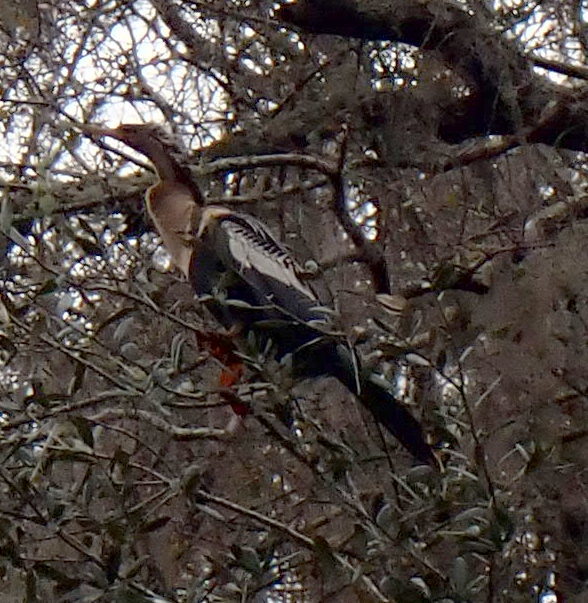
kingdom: Animalia
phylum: Chordata
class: Aves
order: Suliformes
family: Anhingidae
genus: Anhinga
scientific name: Anhinga anhinga
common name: Anhinga
